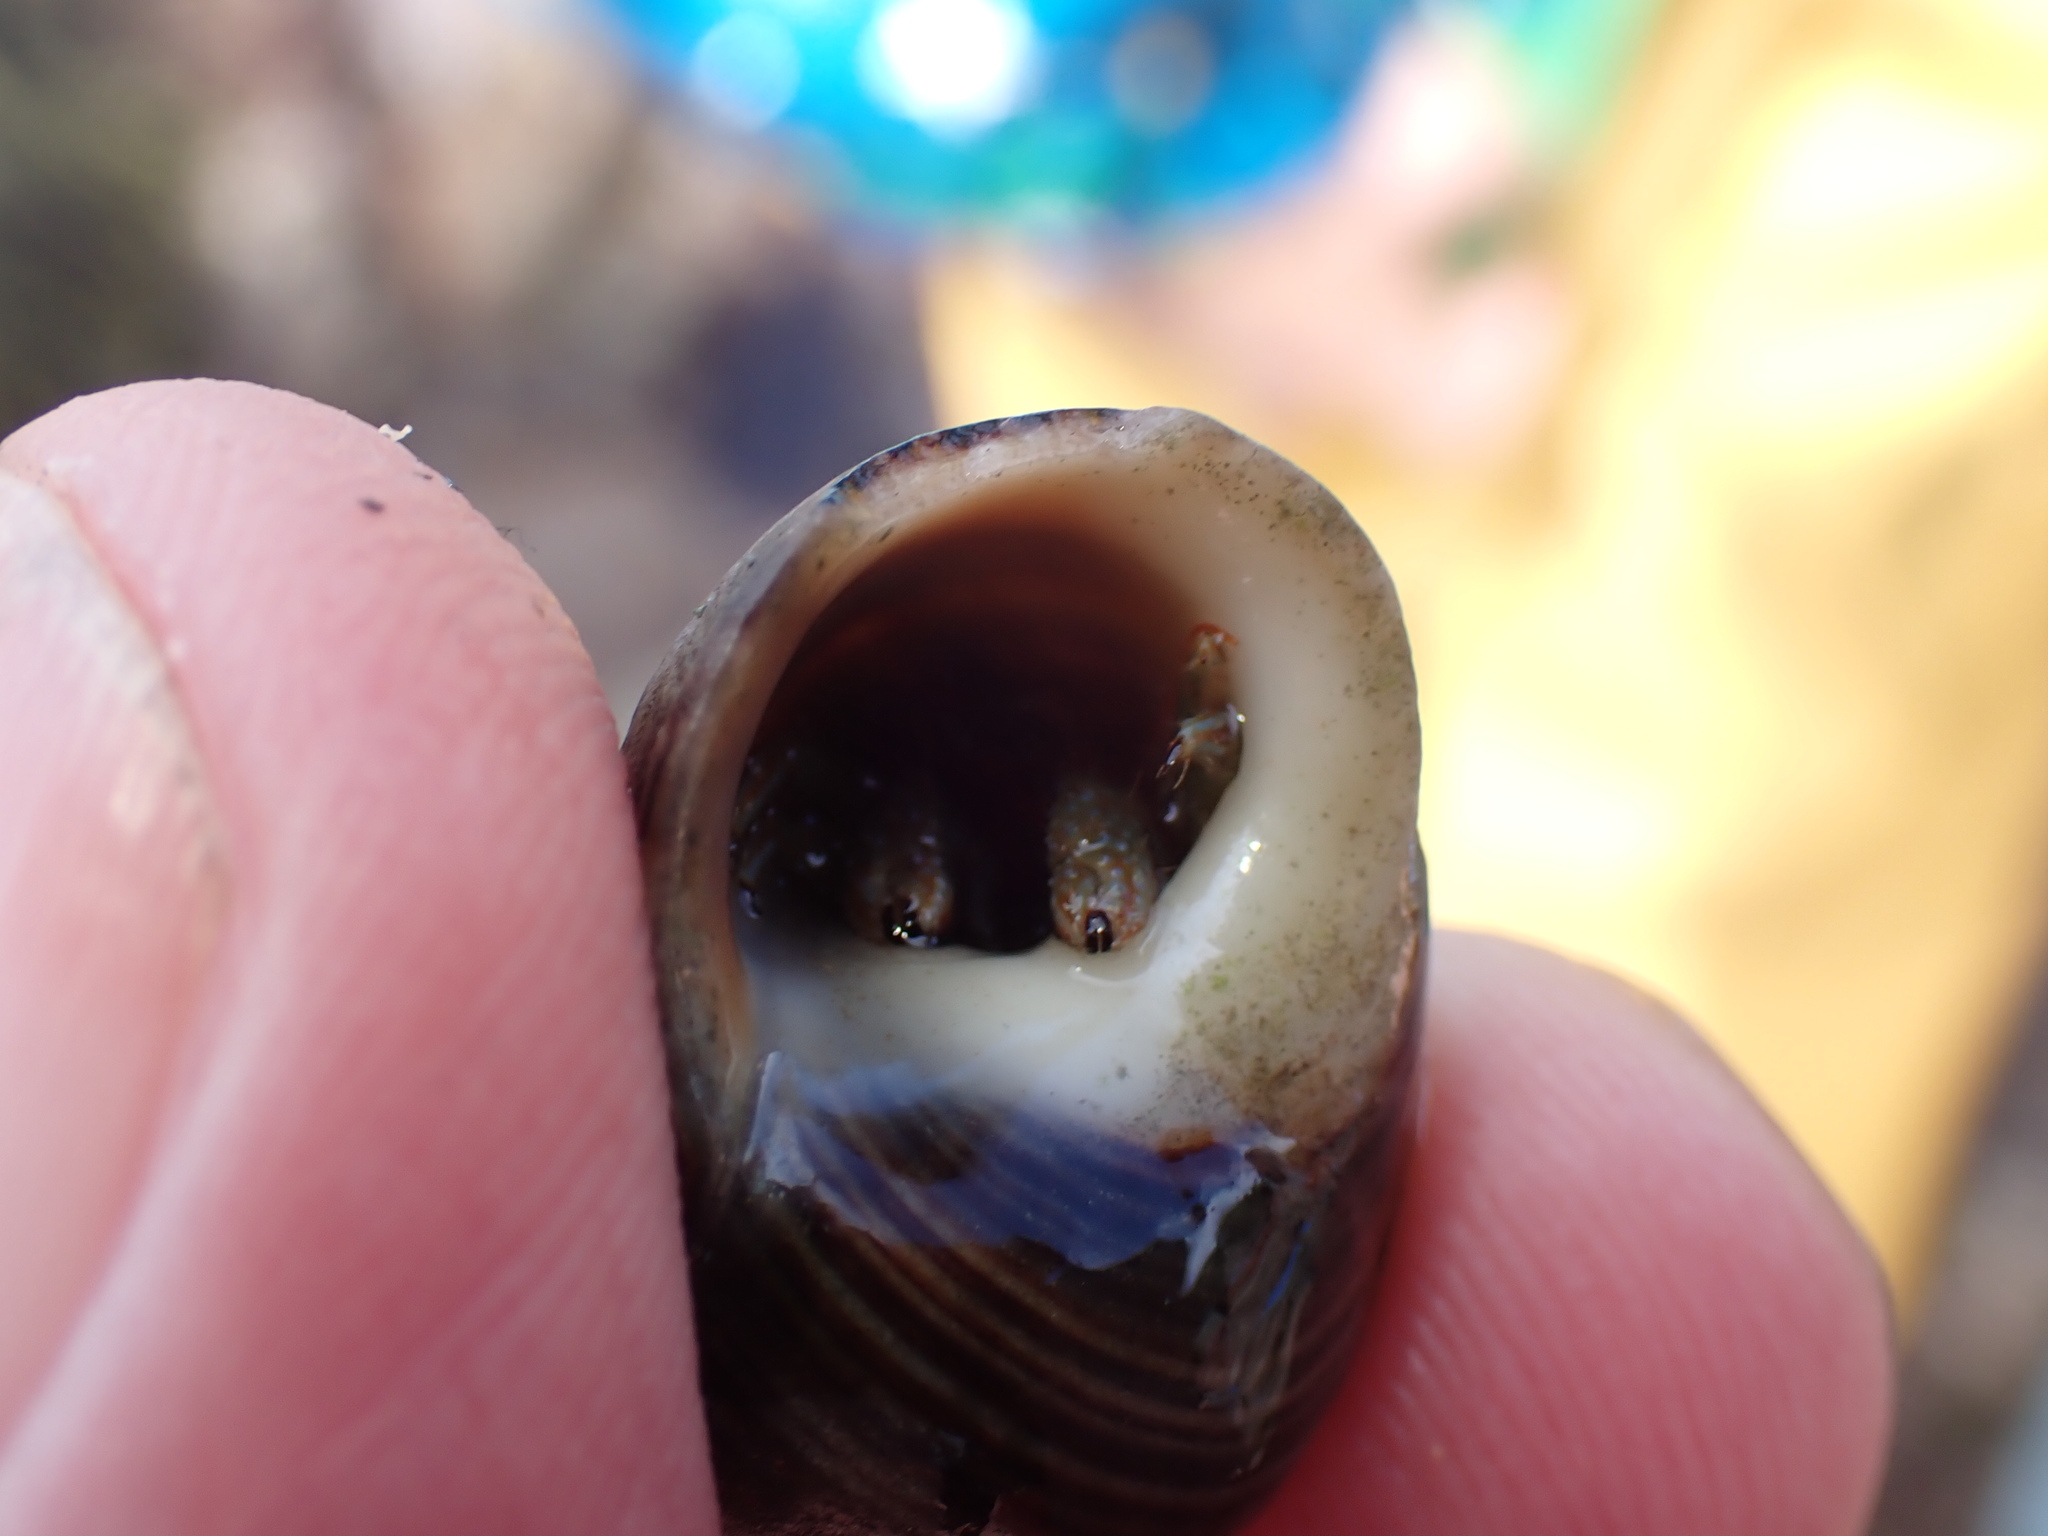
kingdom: Animalia
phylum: Arthropoda
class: Malacostraca
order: Decapoda
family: Diogenidae
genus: Clibanarius
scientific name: Clibanarius erythropus
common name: Hermit crab
